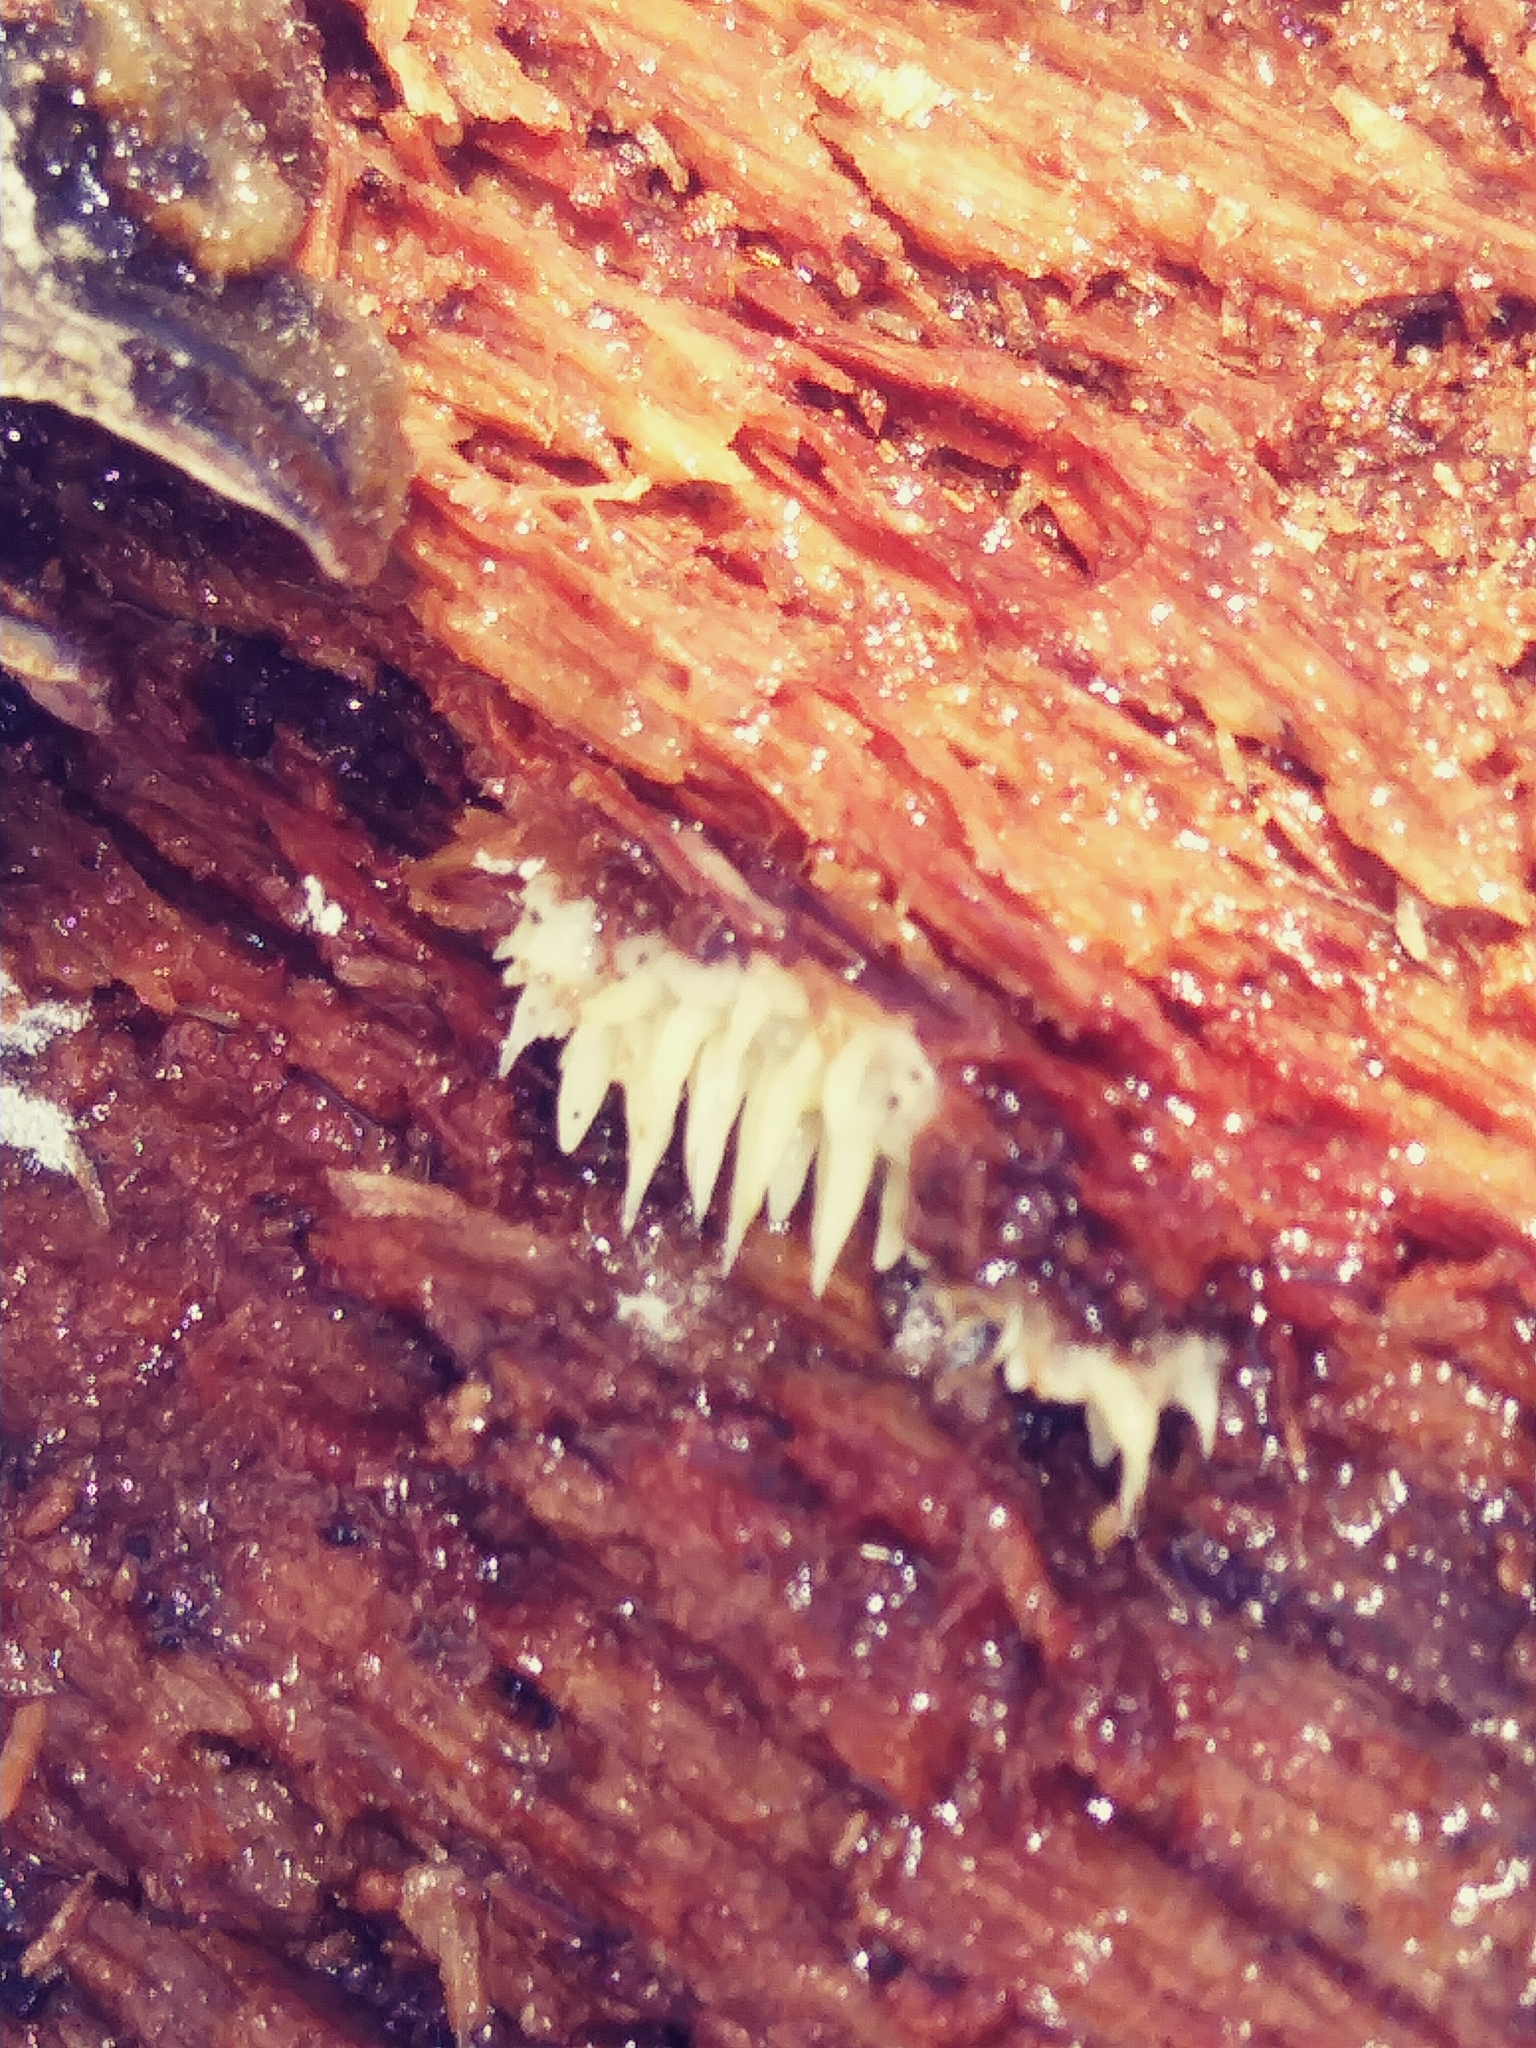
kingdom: Fungi
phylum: Basidiomycota
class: Agaricomycetes
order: Agaricales
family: Radulomycetaceae
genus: Radulomyces
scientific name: Radulomyces copelandii
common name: Asian beauty
